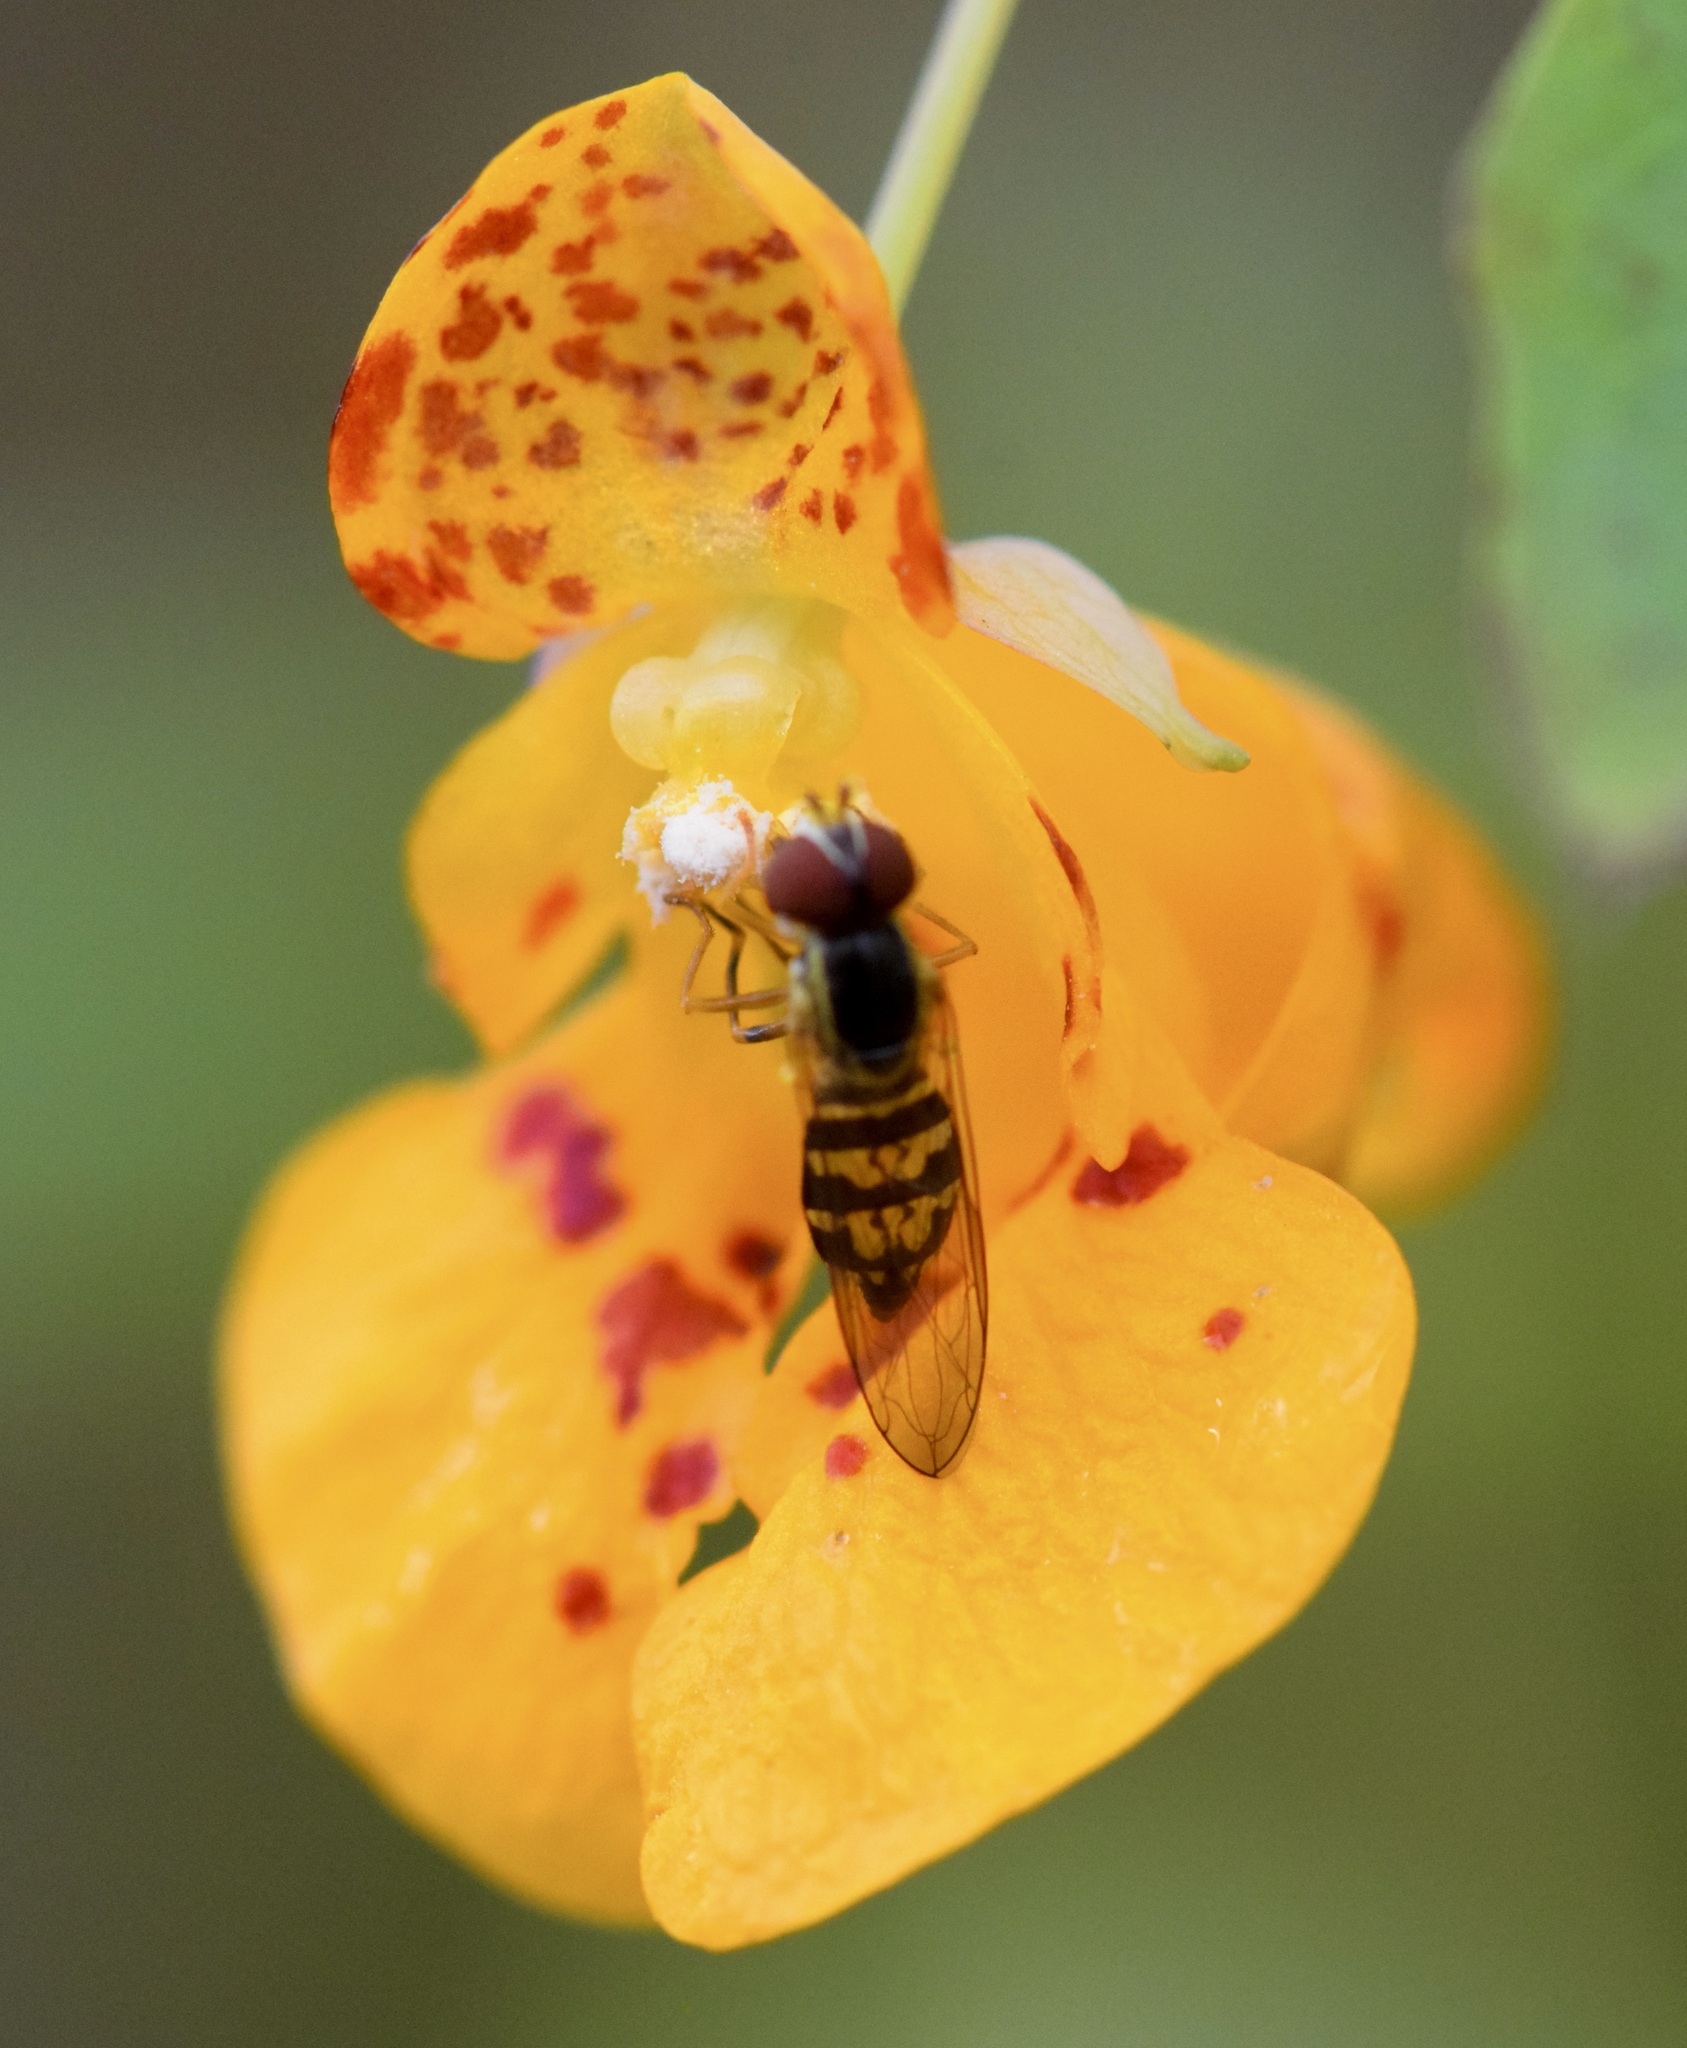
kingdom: Animalia
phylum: Arthropoda
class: Insecta
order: Diptera
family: Syrphidae
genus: Toxomerus
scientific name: Toxomerus geminatus
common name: Eastern calligrapher
